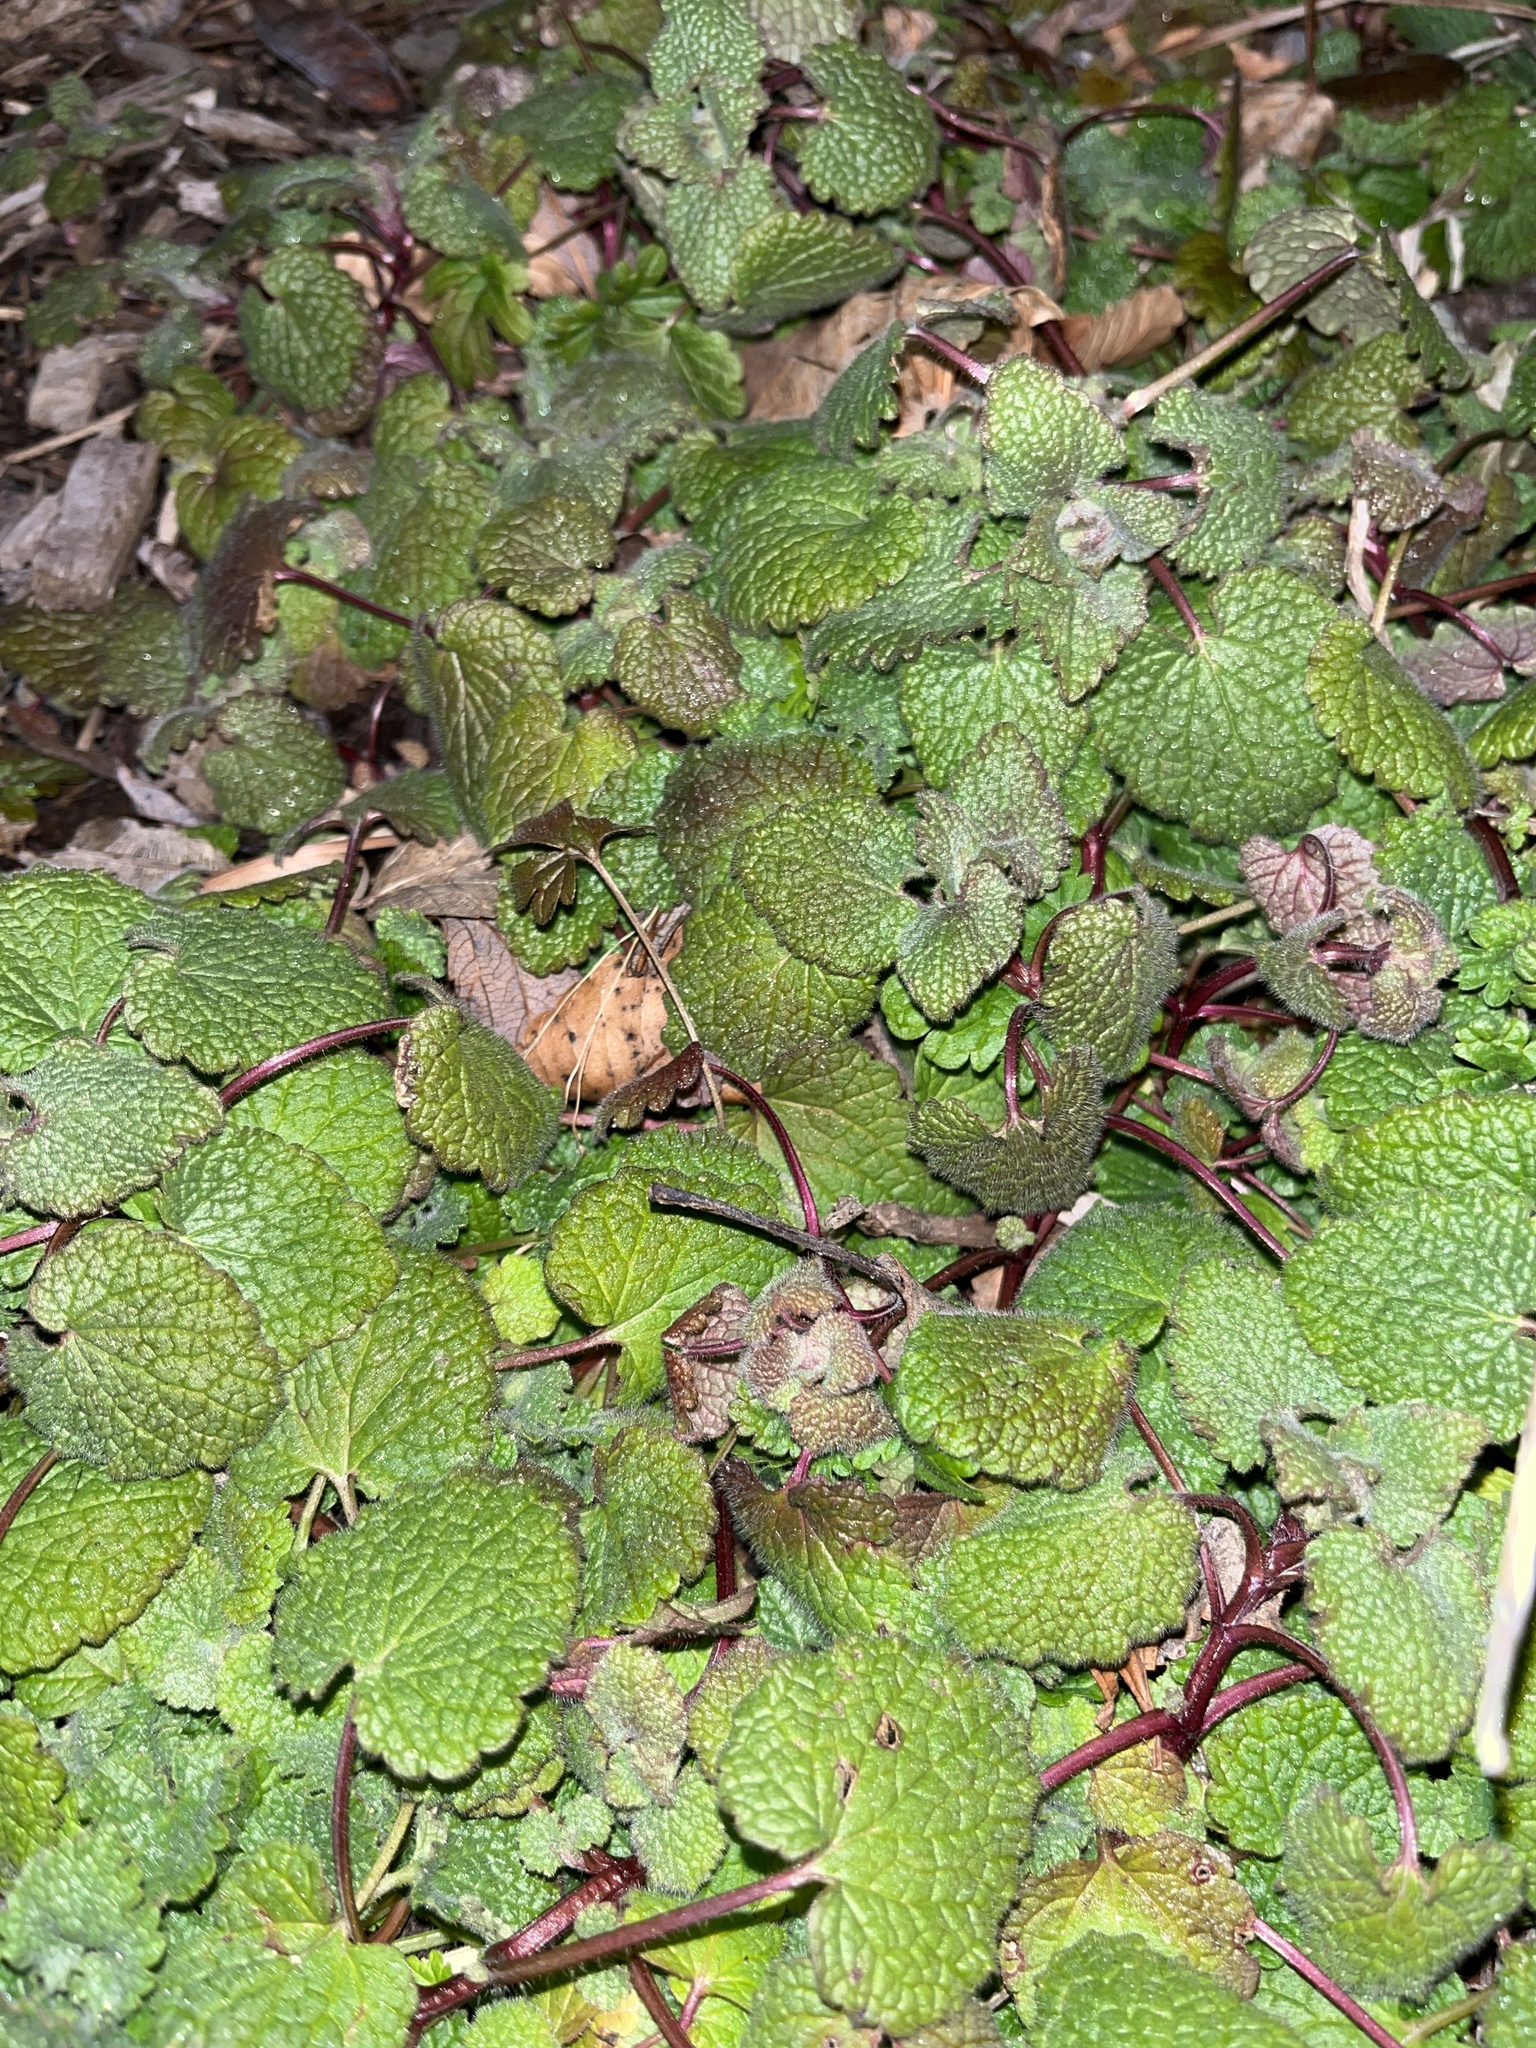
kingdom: Plantae
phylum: Tracheophyta
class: Magnoliopsida
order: Lamiales
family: Lamiaceae
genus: Lamium
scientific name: Lamium purpureum
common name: Red dead-nettle
